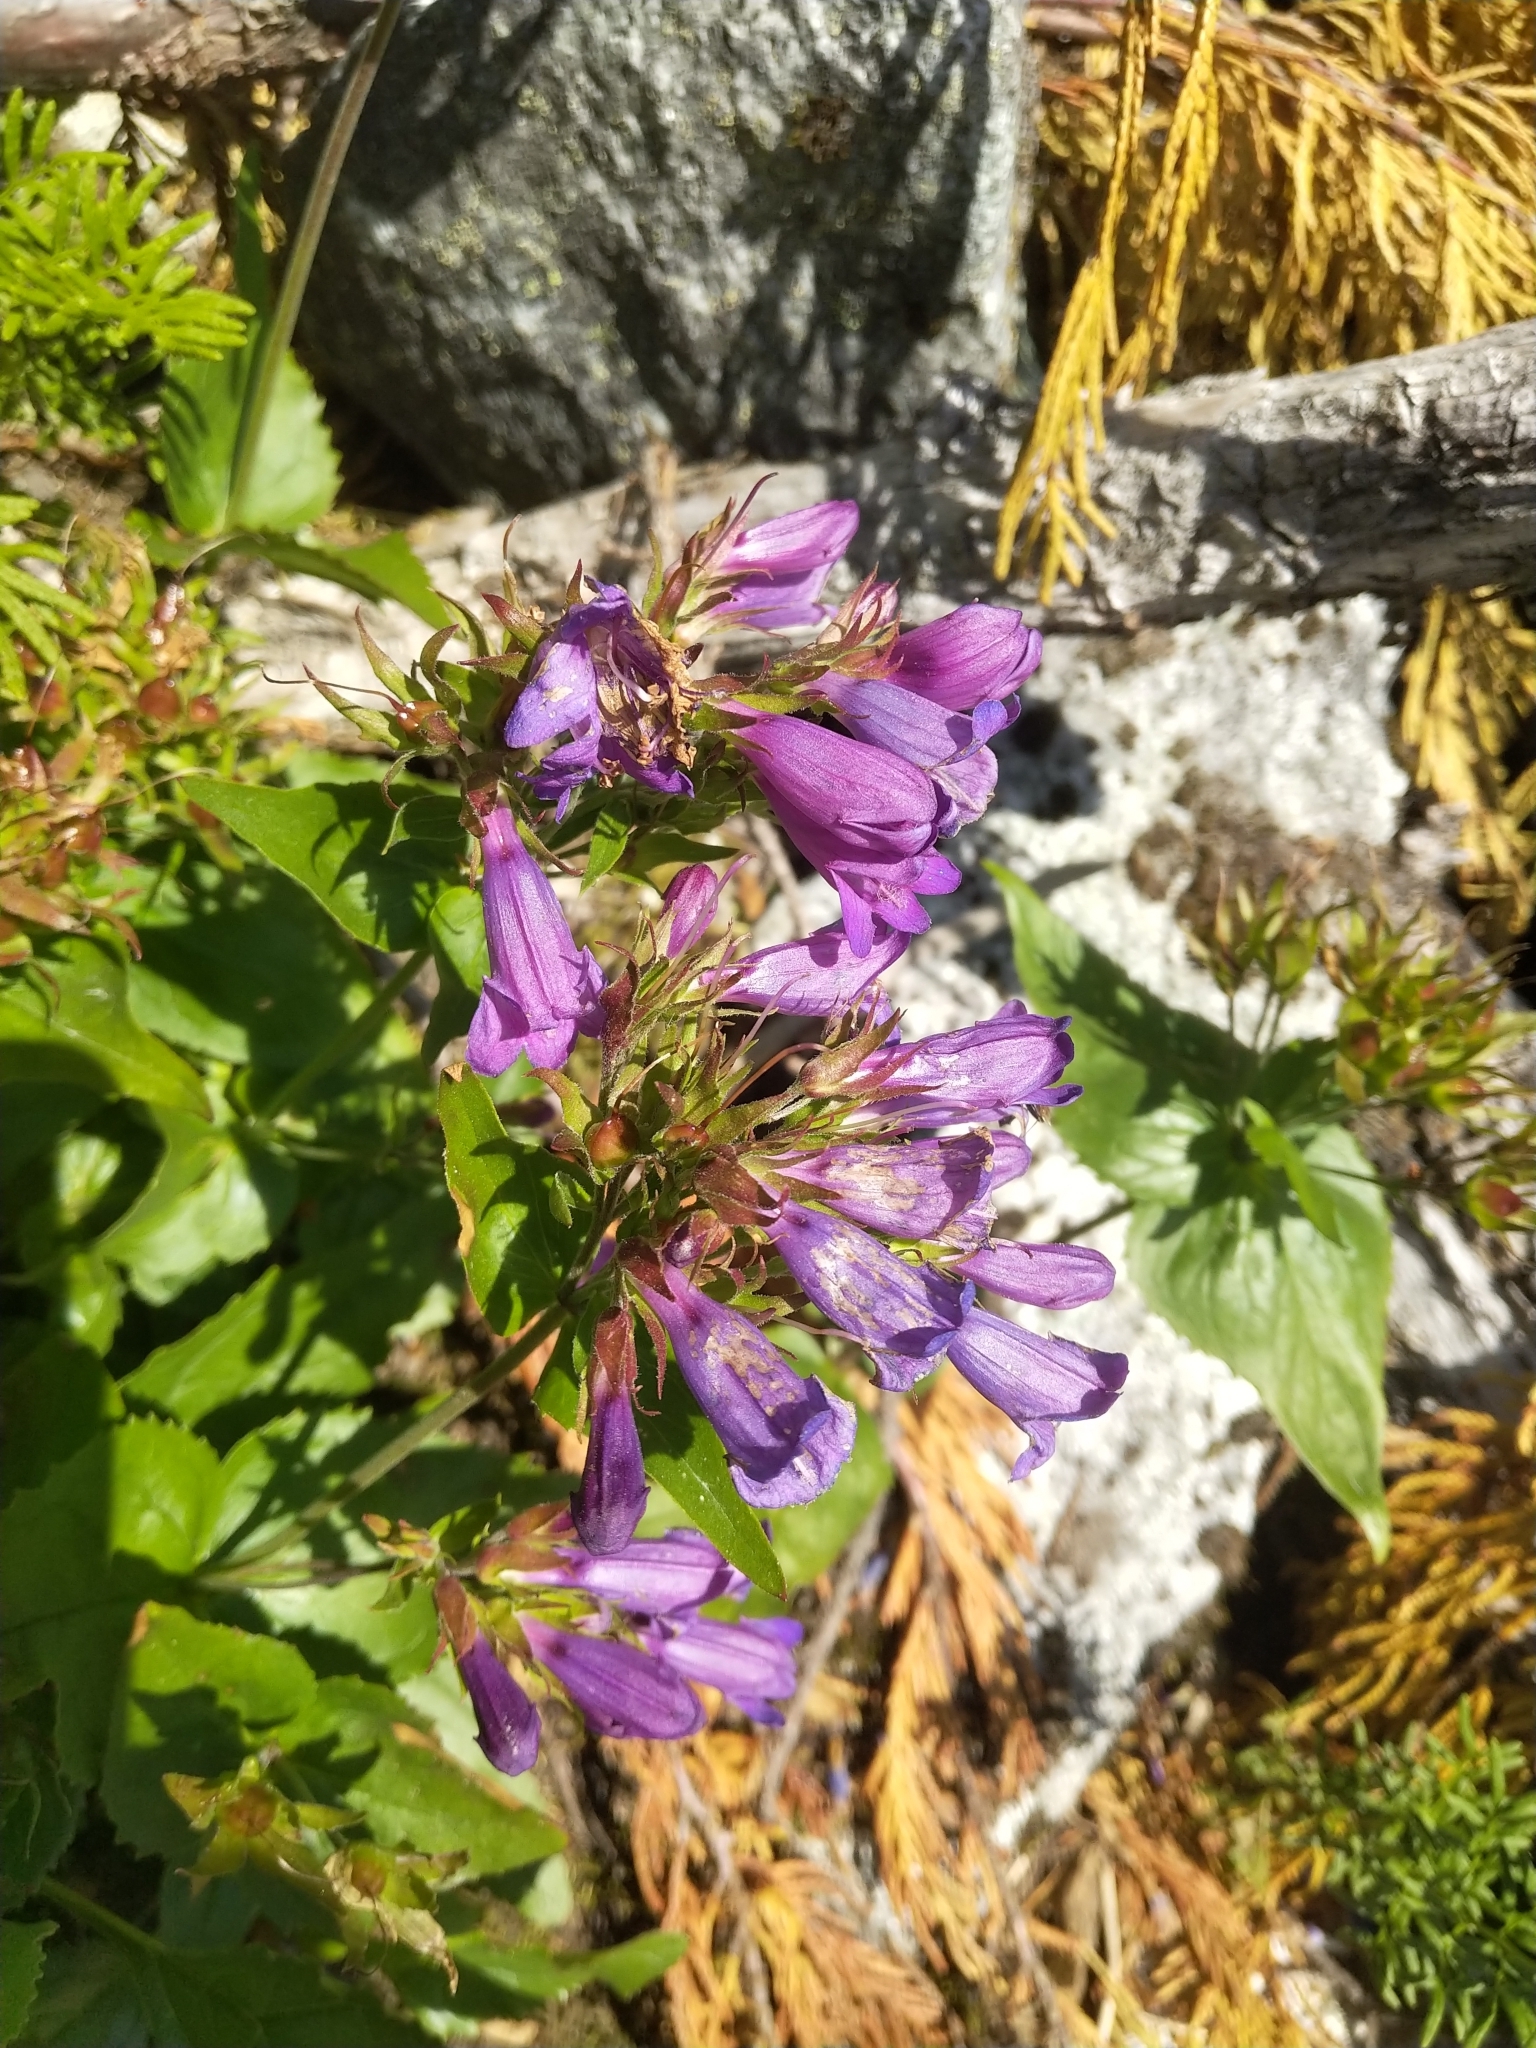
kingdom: Plantae
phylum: Tracheophyta
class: Magnoliopsida
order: Lamiales
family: Plantaginaceae
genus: Penstemon
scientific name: Penstemon serrulatus
